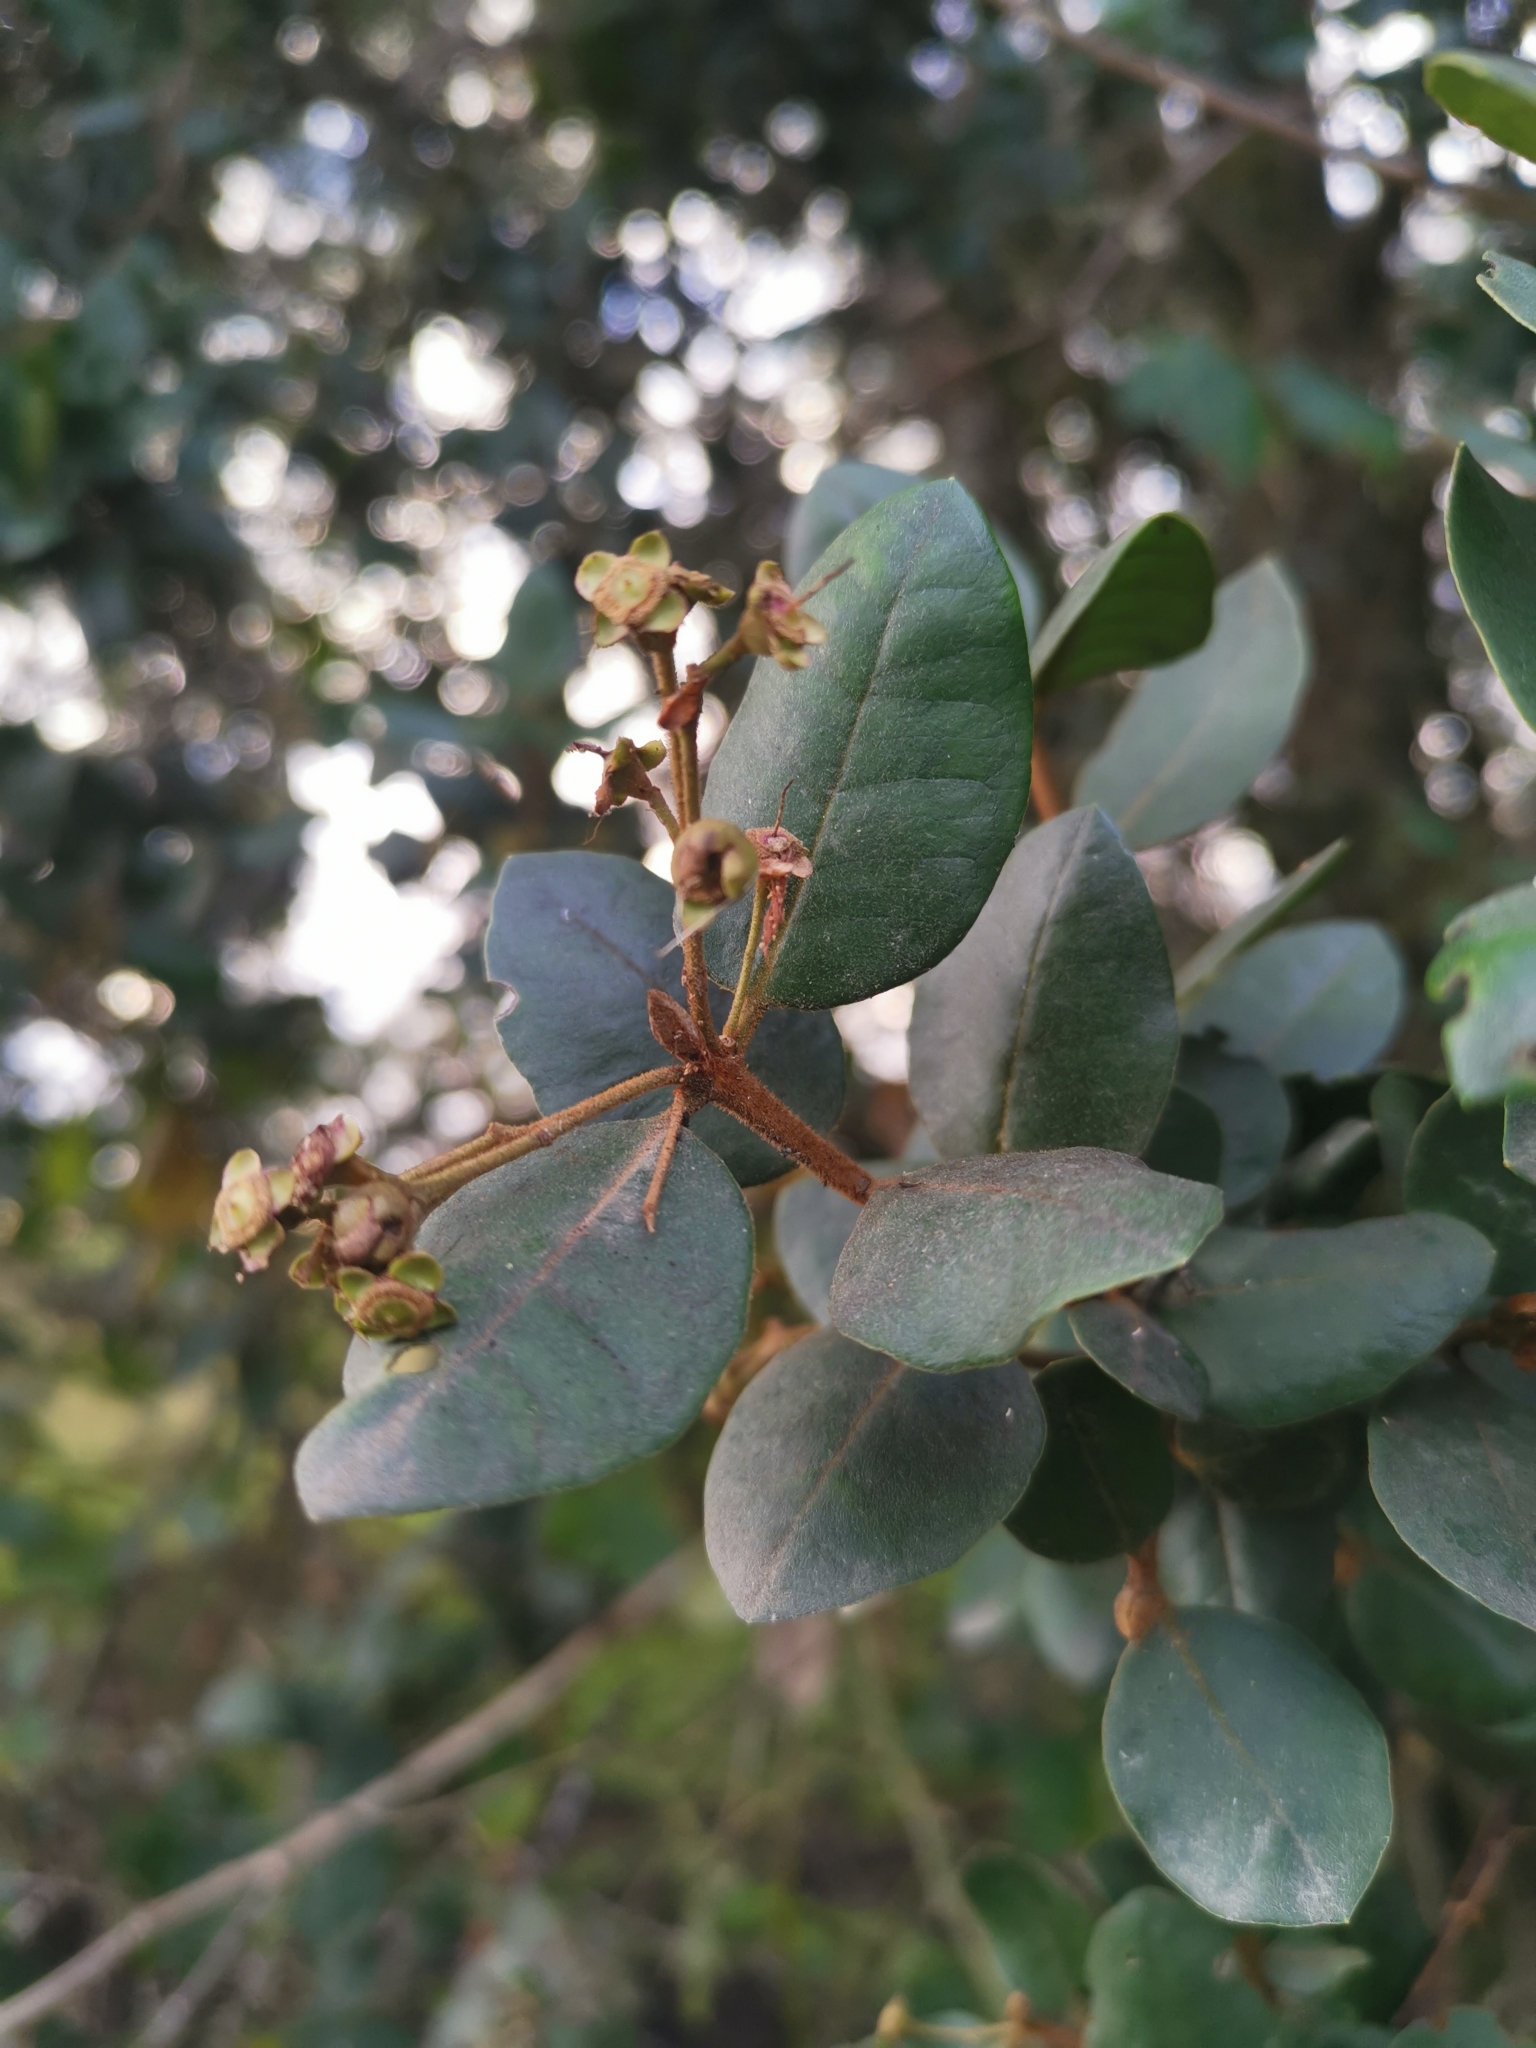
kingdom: Plantae
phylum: Tracheophyta
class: Magnoliopsida
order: Myrtales
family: Myrtaceae
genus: Myrceugenia
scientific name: Myrceugenia exsucca
